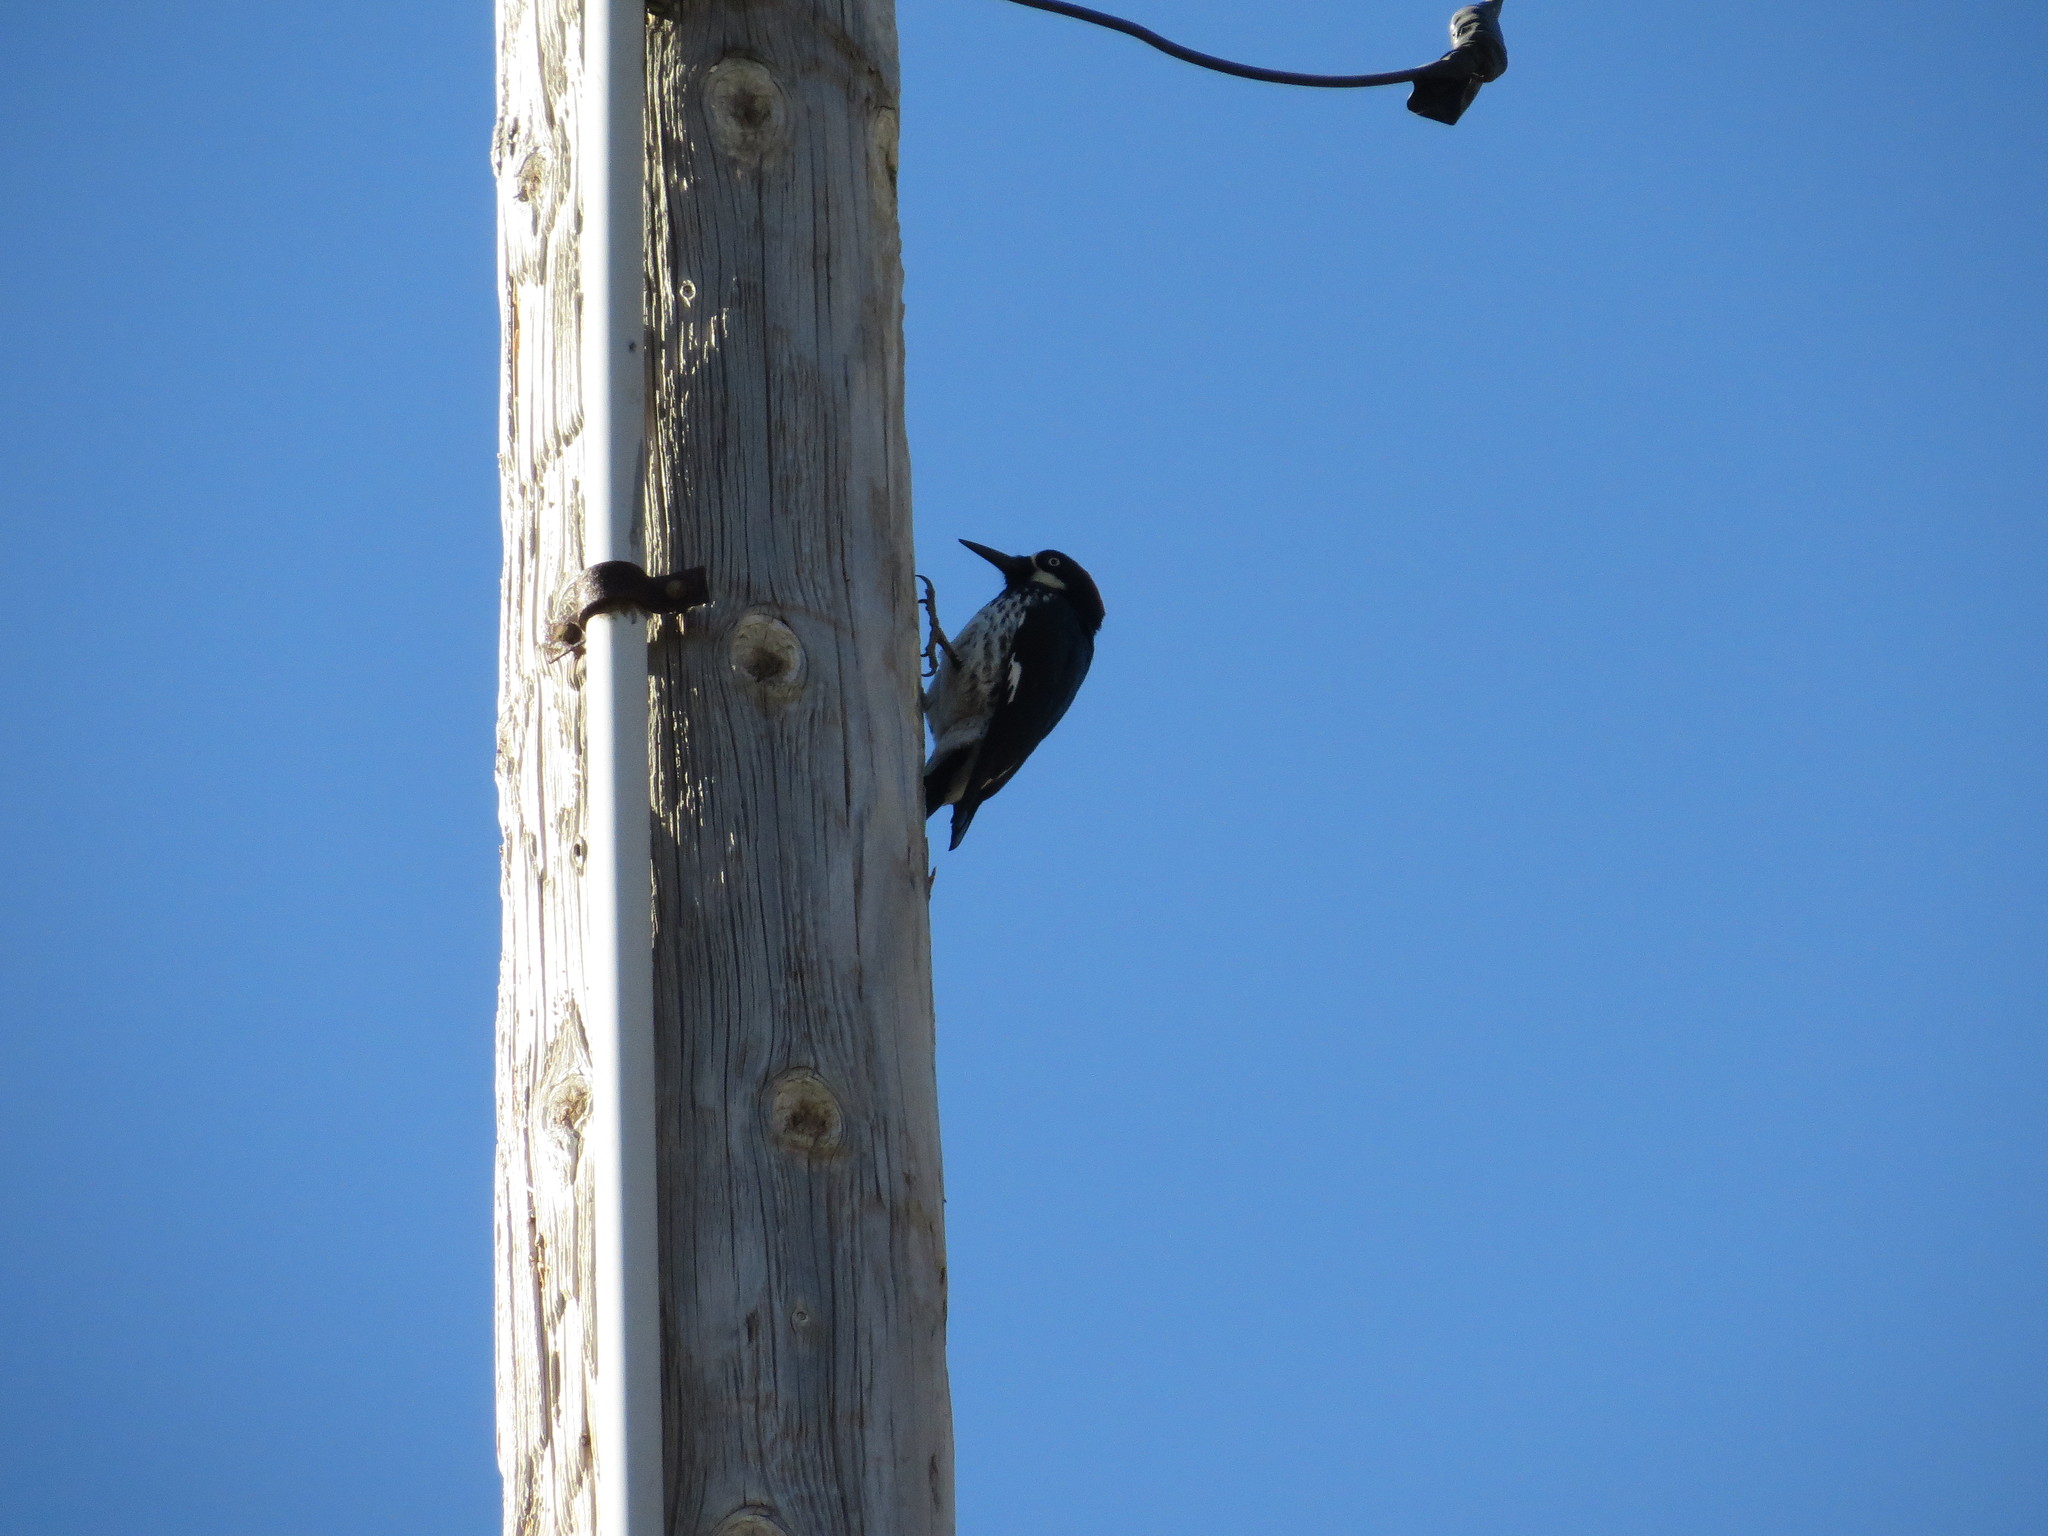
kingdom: Animalia
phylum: Chordata
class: Aves
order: Piciformes
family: Picidae
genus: Melanerpes
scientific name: Melanerpes formicivorus
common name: Acorn woodpecker
